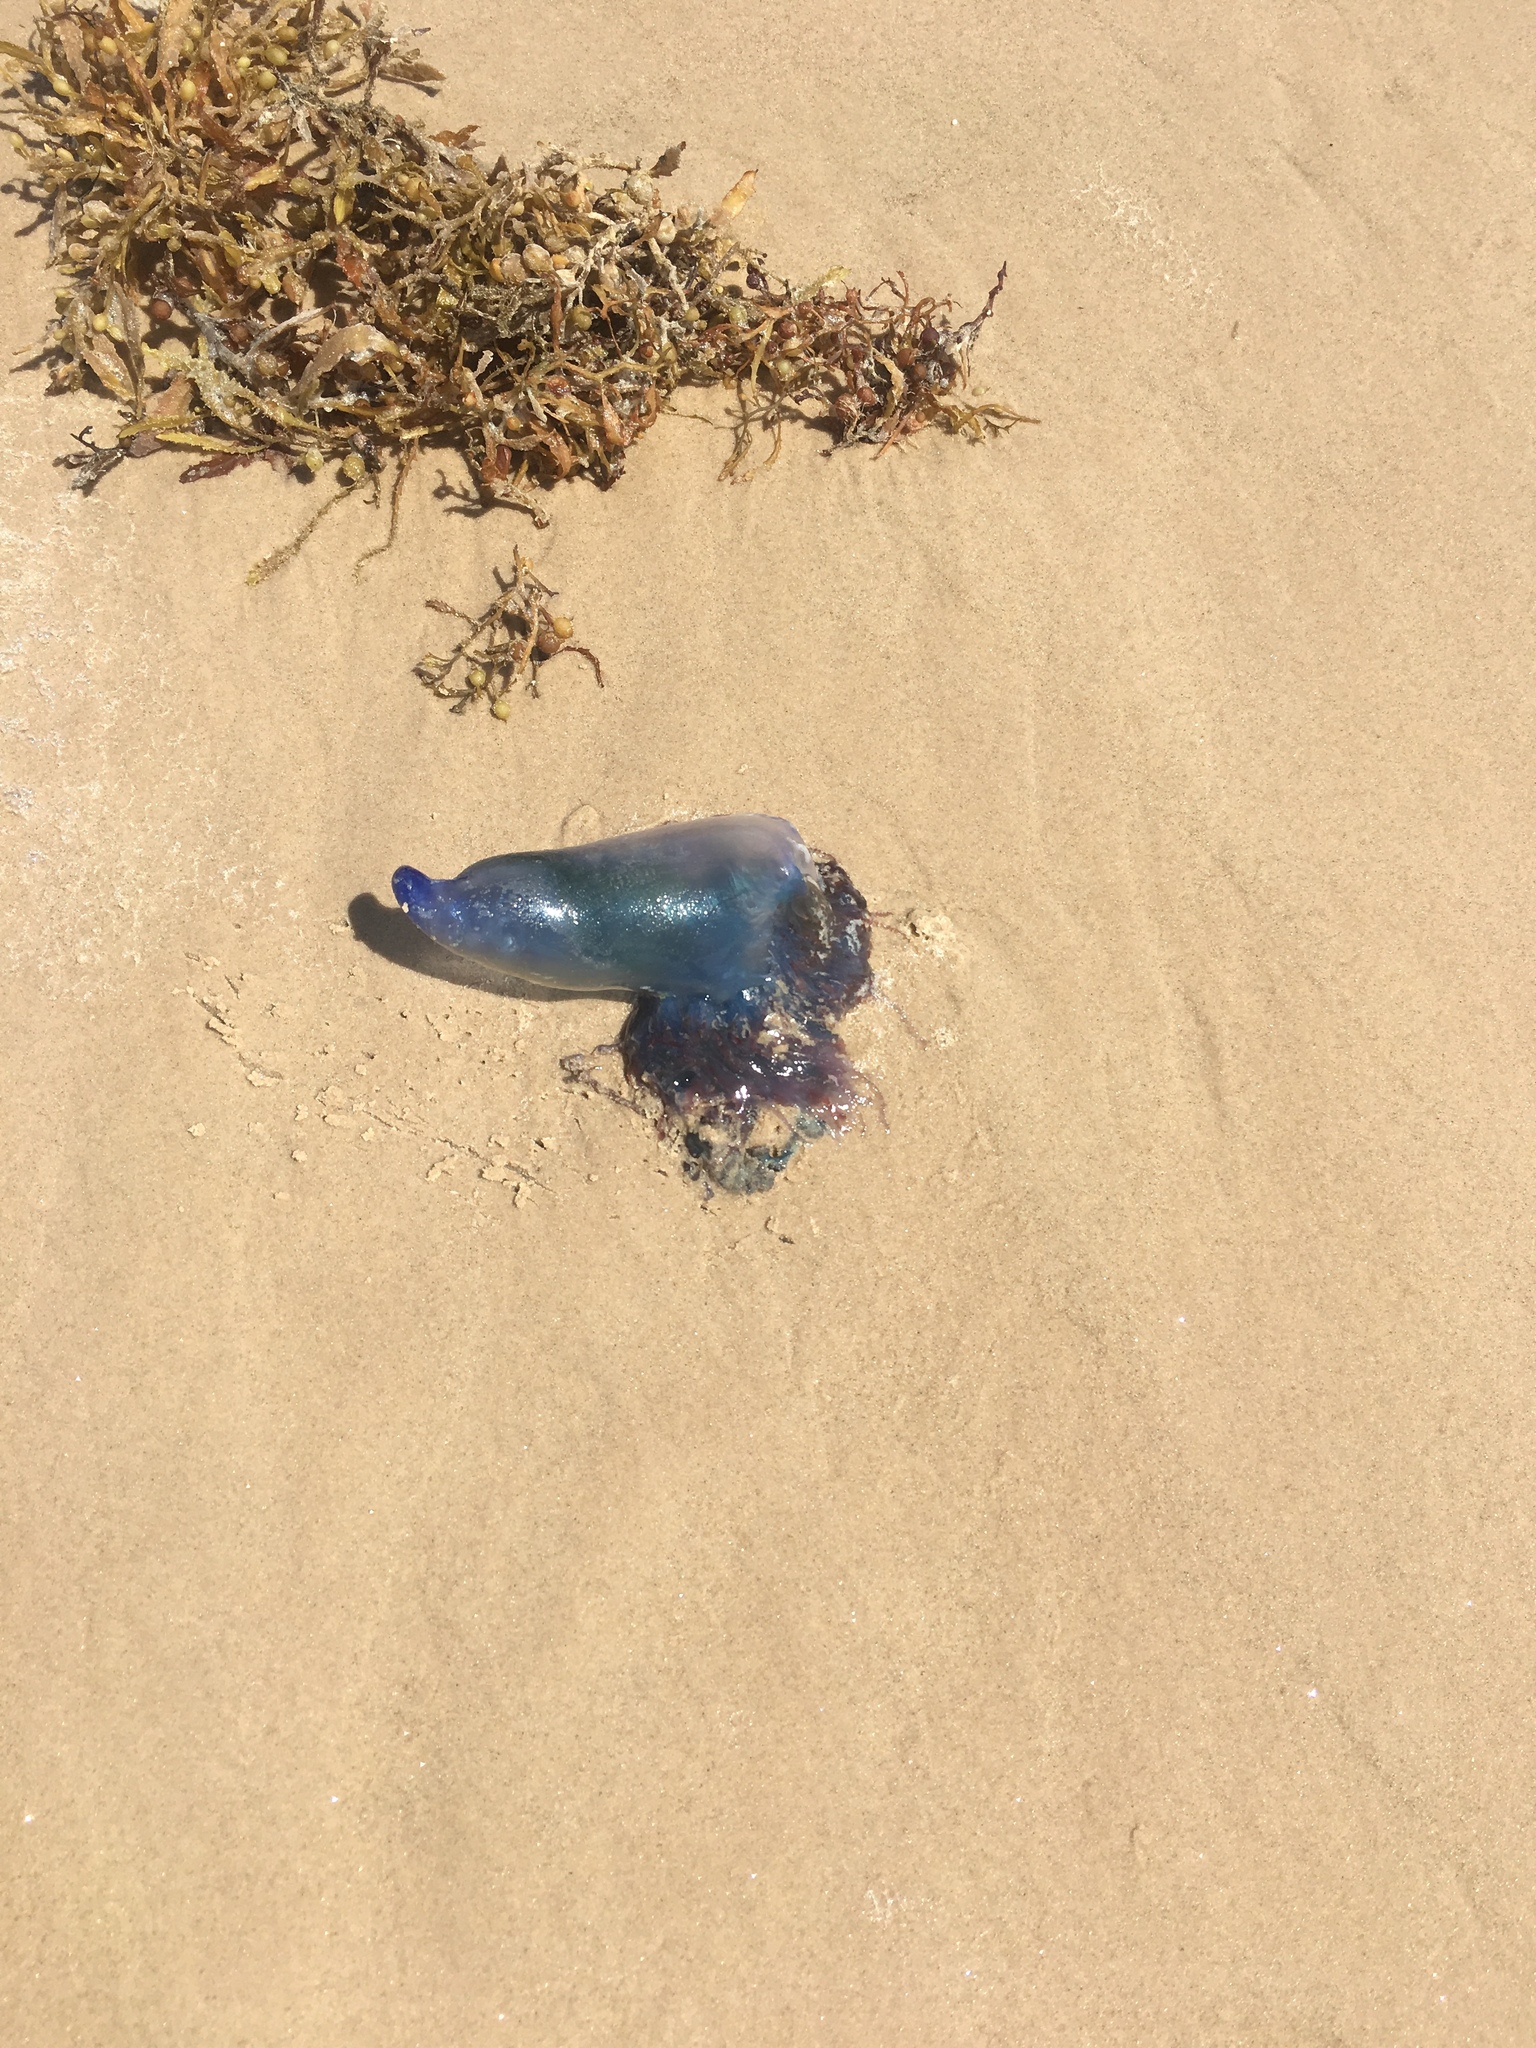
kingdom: Animalia
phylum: Cnidaria
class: Hydrozoa
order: Siphonophorae
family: Physaliidae
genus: Physalia
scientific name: Physalia physalis
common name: Portuguese man-of-war
